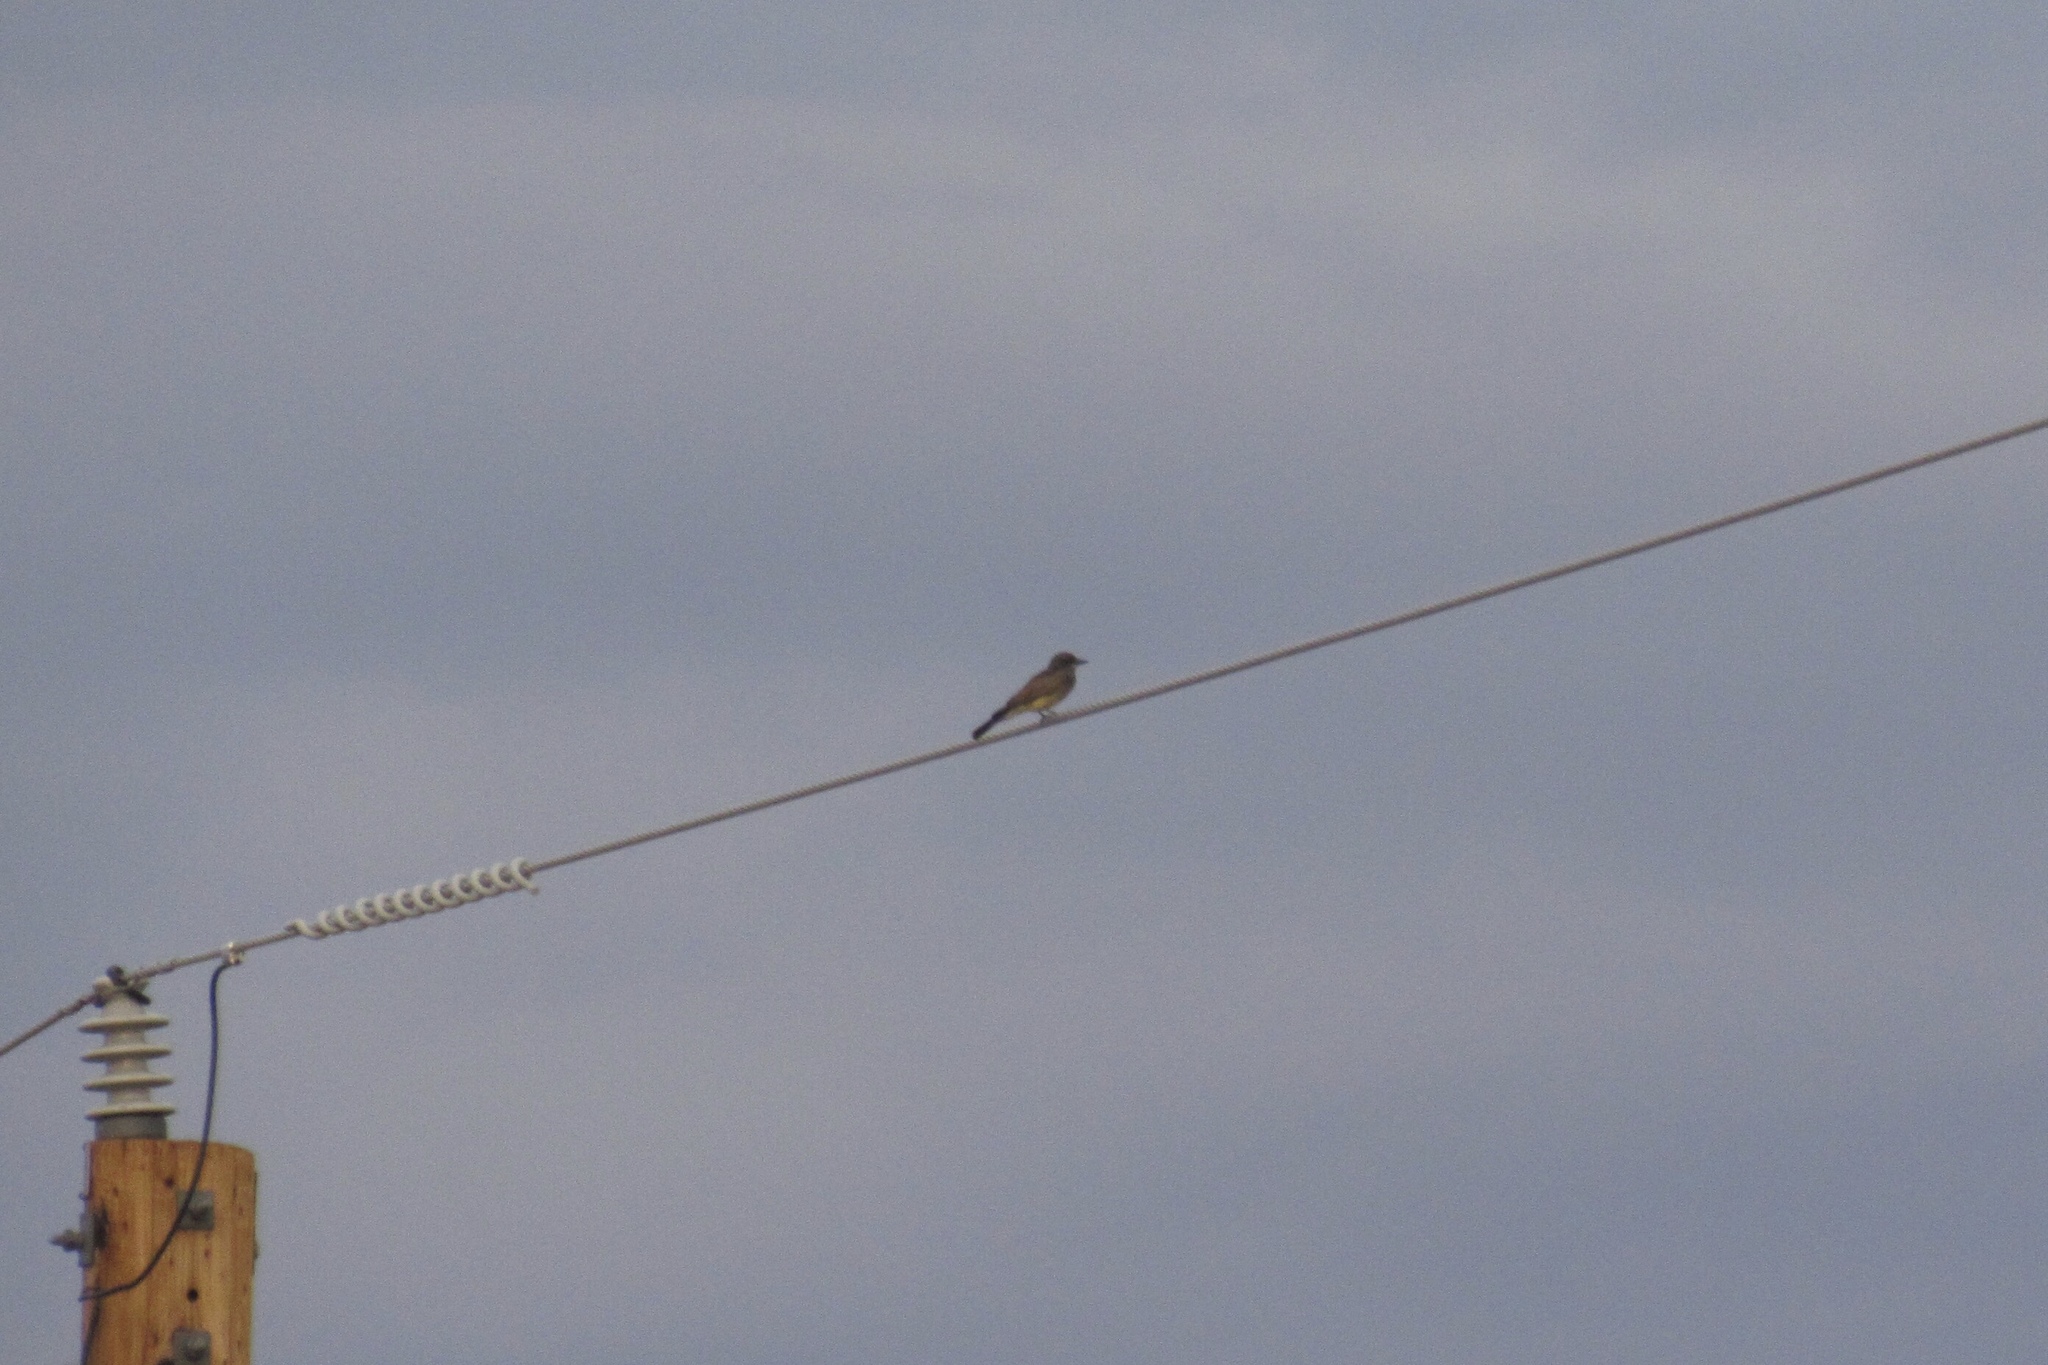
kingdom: Animalia
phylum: Chordata
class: Aves
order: Passeriformes
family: Tyrannidae
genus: Tyrannus
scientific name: Tyrannus vociferans
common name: Cassin's kingbird
